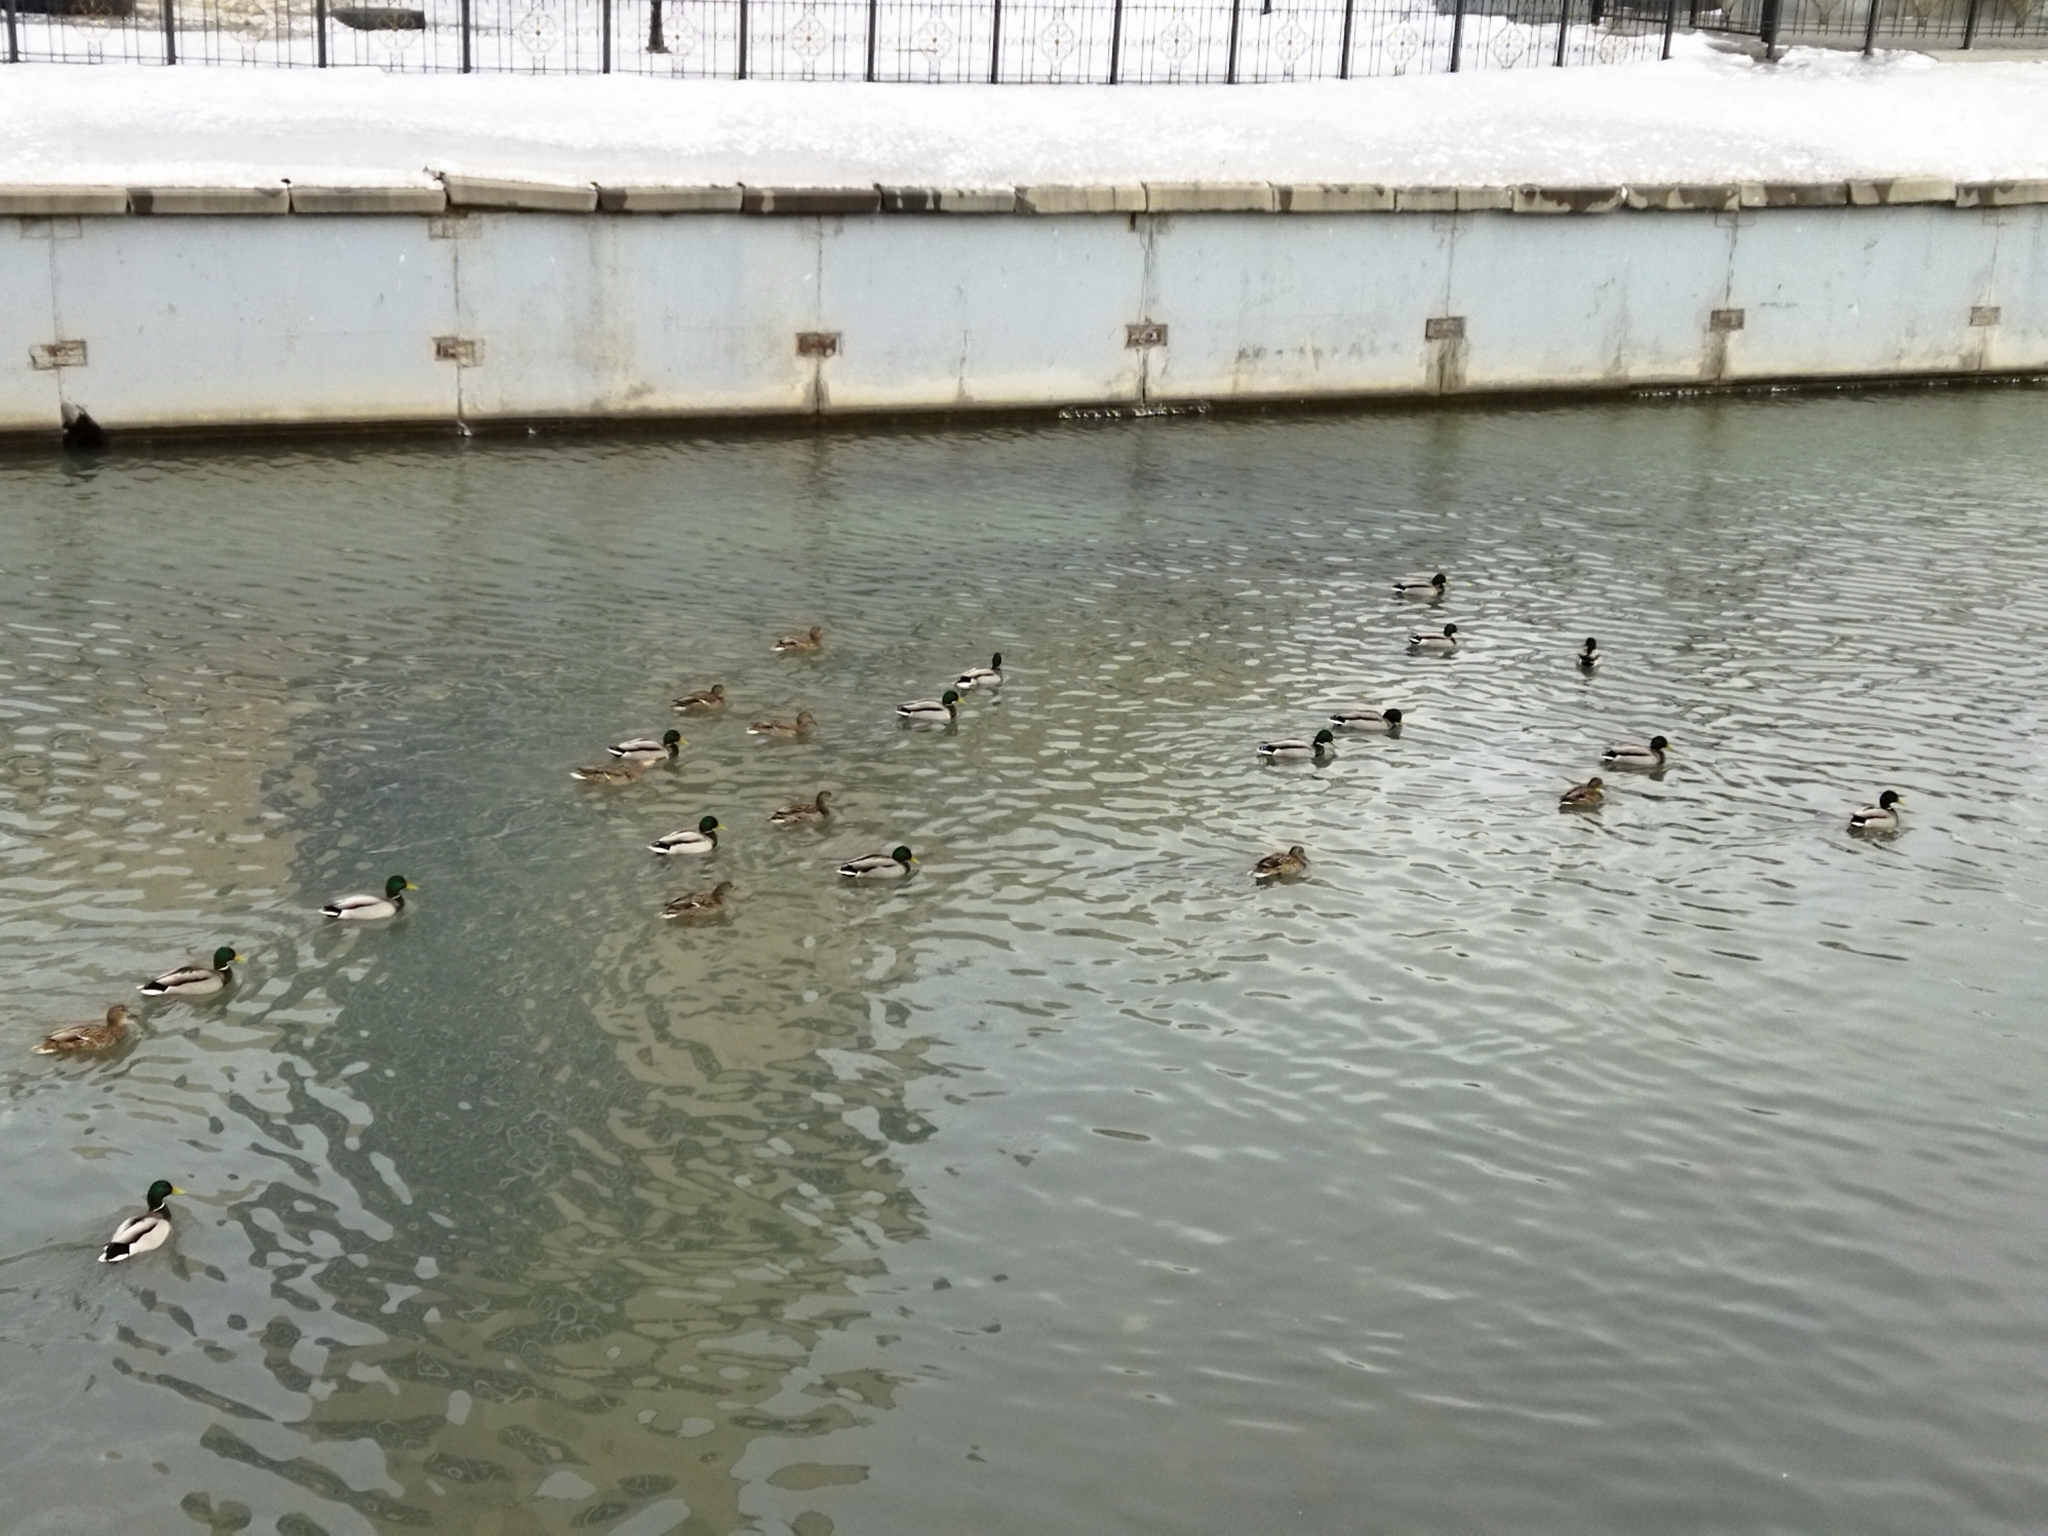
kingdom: Animalia
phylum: Chordata
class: Aves
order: Anseriformes
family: Anatidae
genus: Anas
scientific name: Anas platyrhynchos
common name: Mallard
